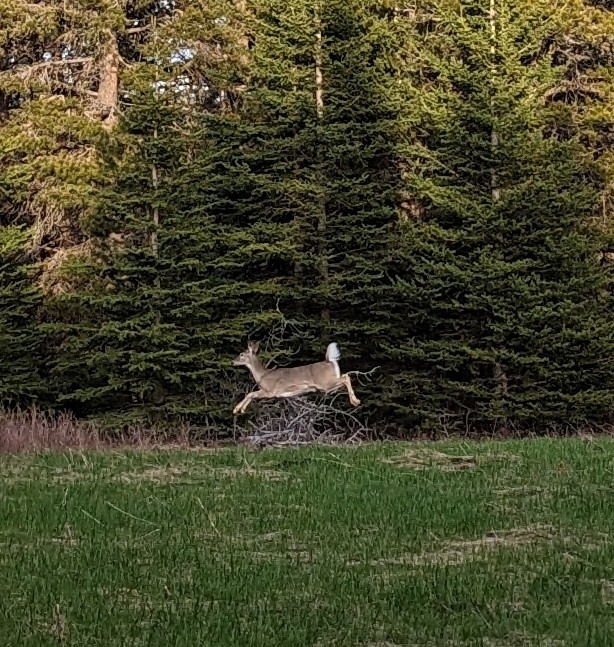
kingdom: Animalia
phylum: Chordata
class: Mammalia
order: Artiodactyla
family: Cervidae
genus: Odocoileus
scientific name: Odocoileus virginianus
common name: White-tailed deer
